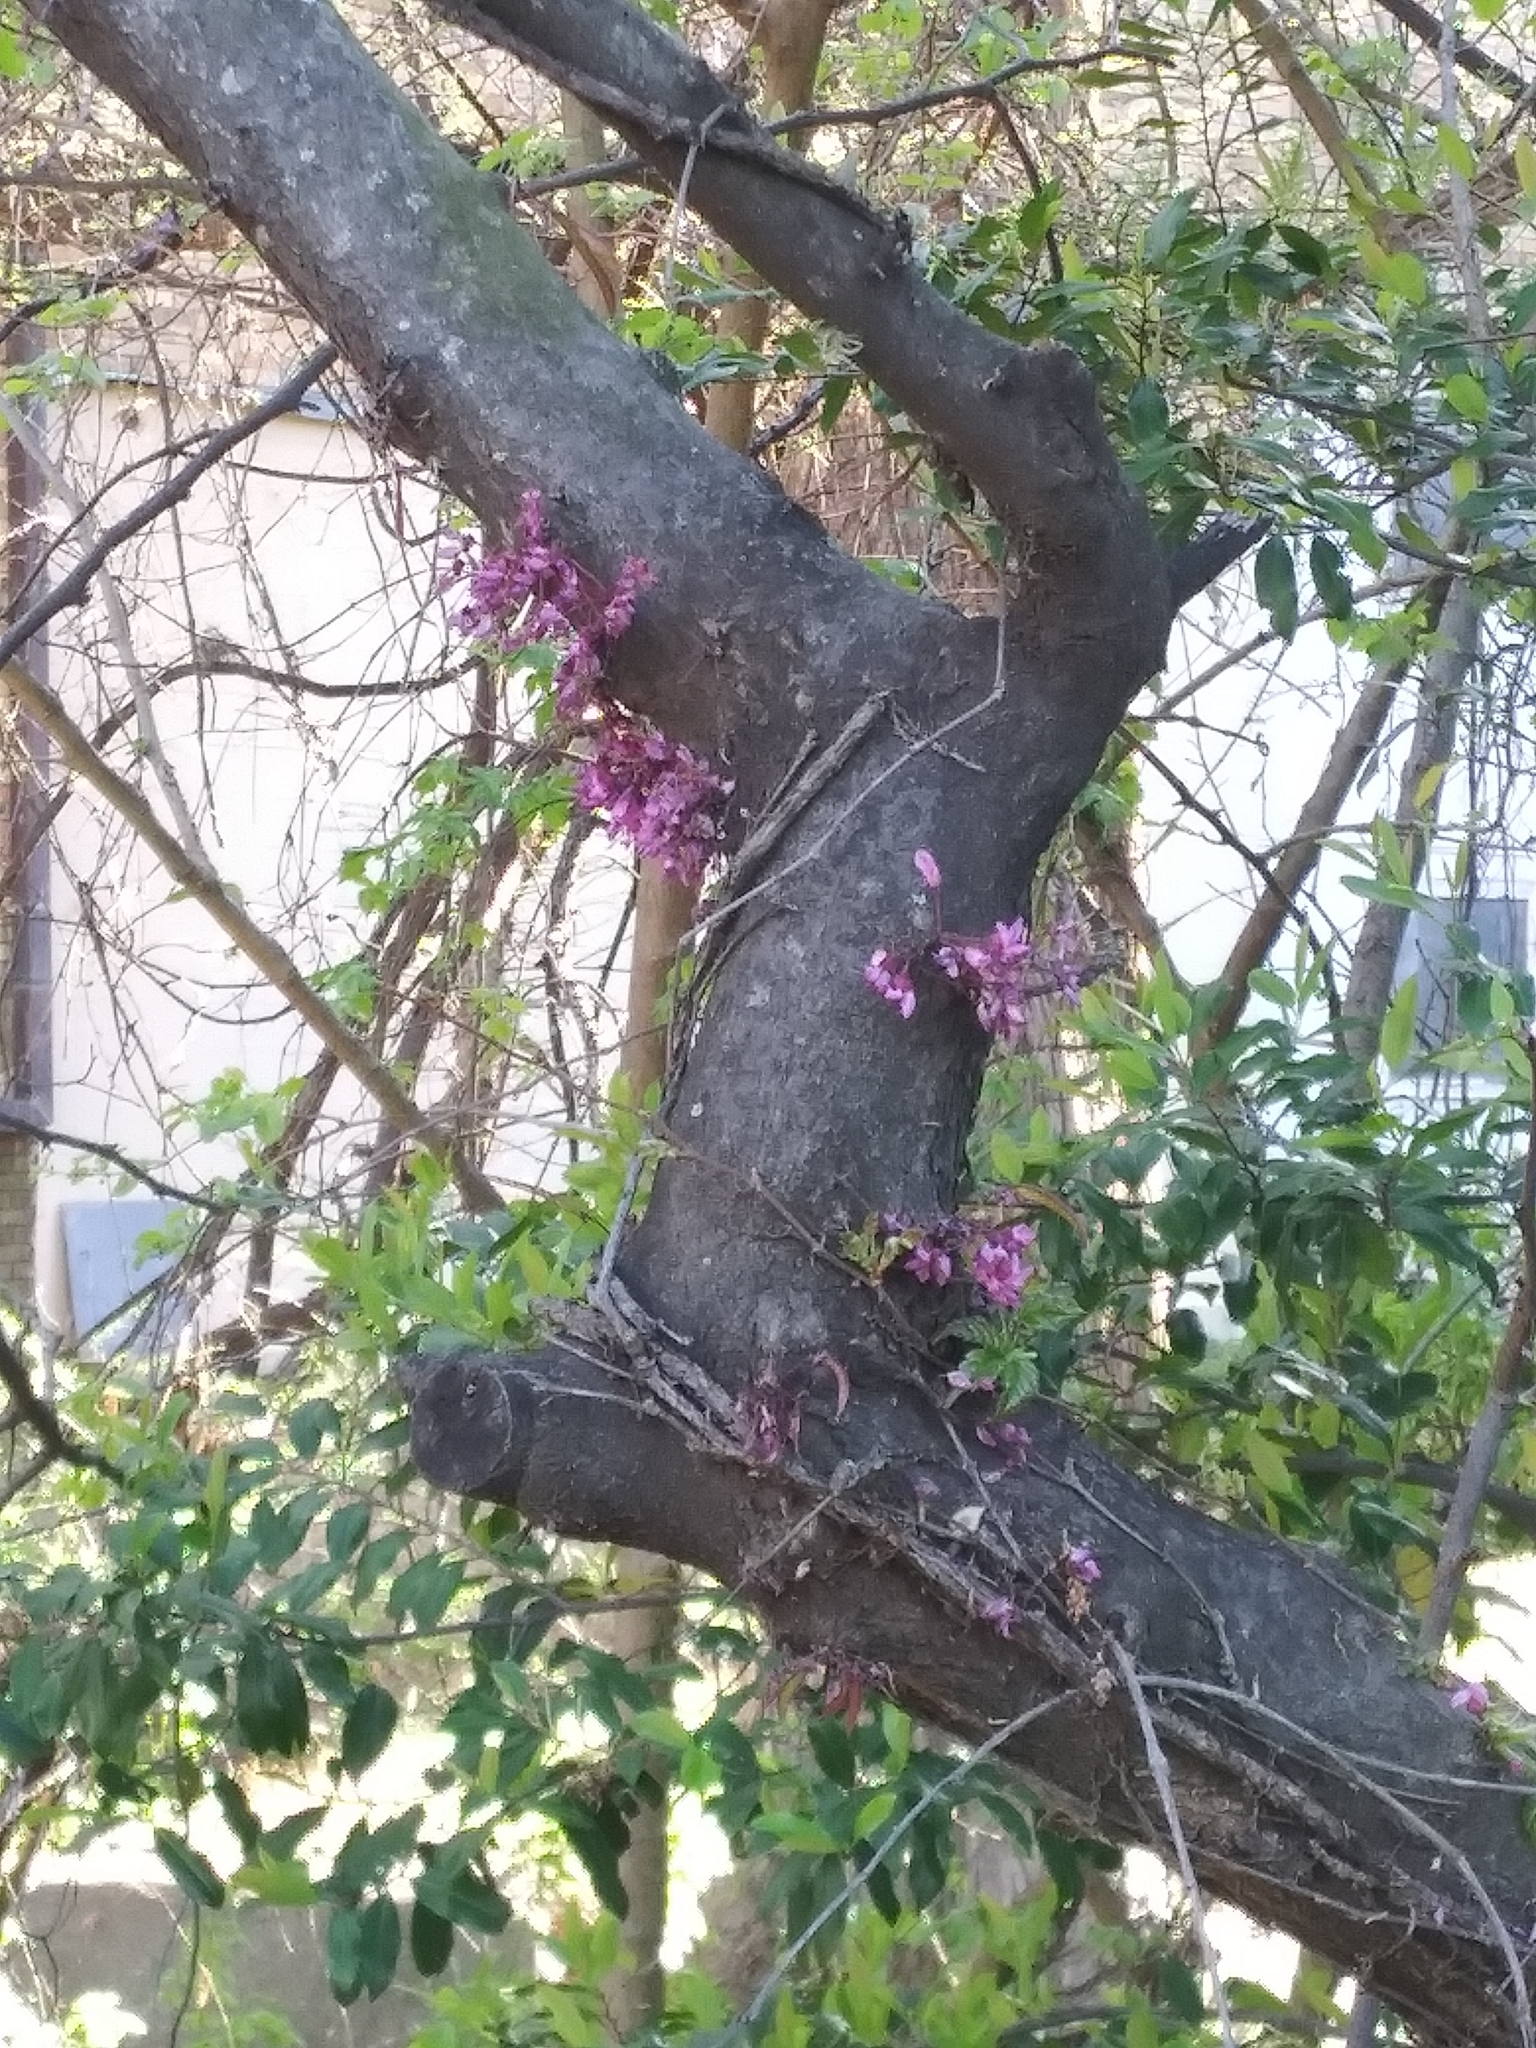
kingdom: Plantae
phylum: Tracheophyta
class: Magnoliopsida
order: Fabales
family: Fabaceae
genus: Cercis
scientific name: Cercis canadensis
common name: Eastern redbud
